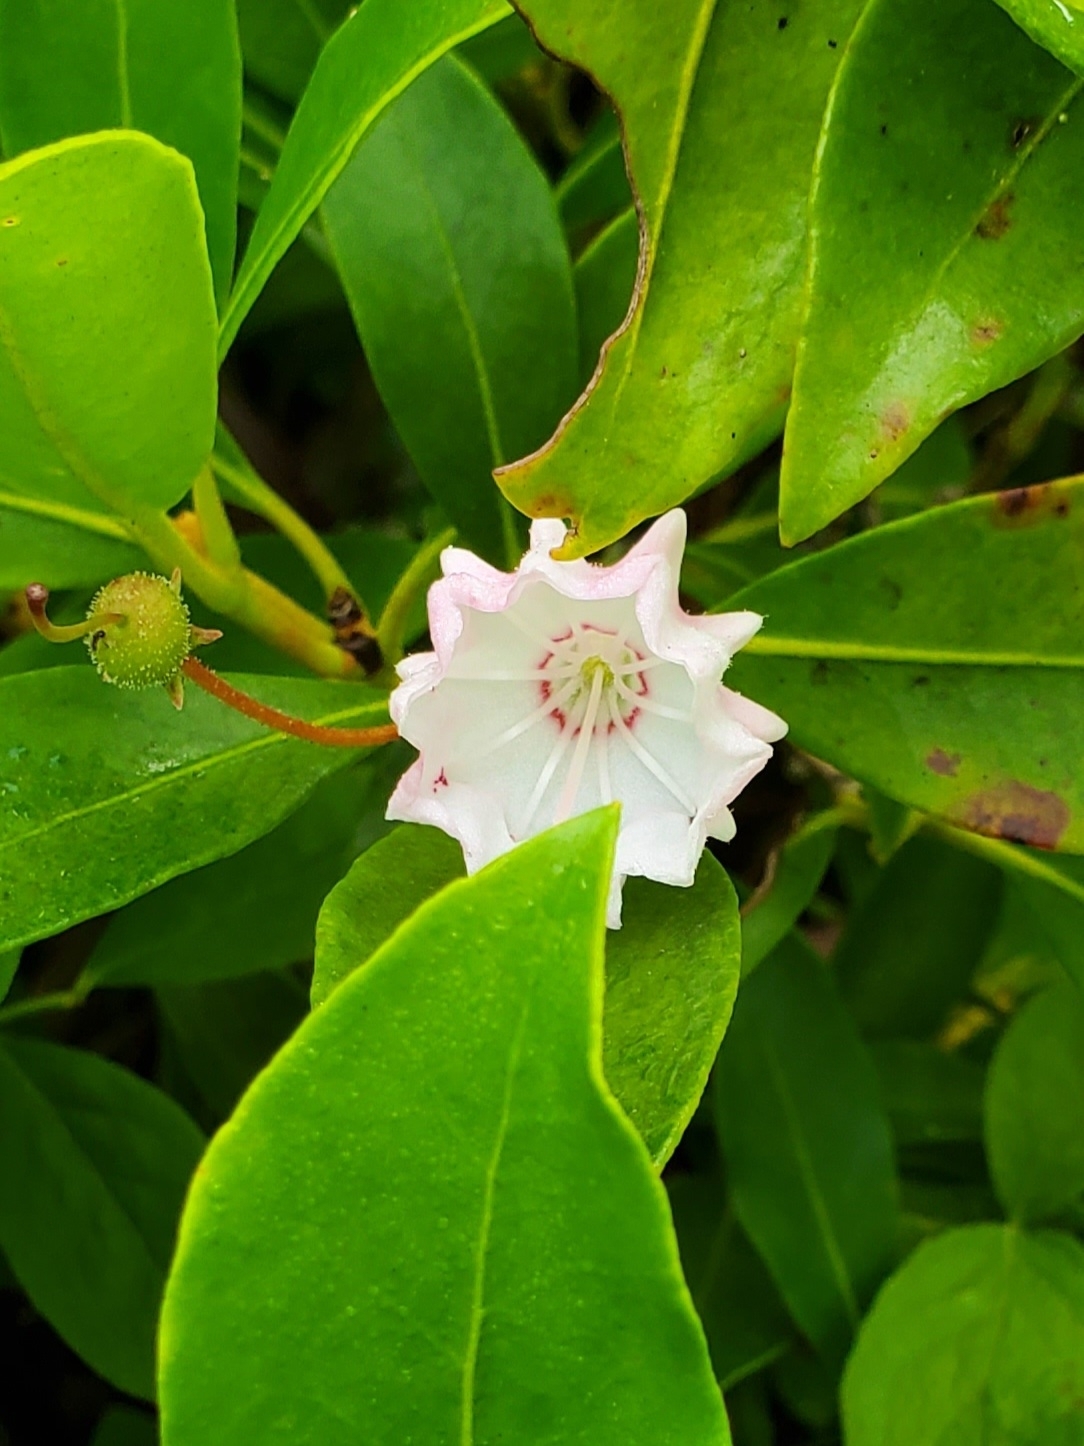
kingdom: Plantae
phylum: Tracheophyta
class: Magnoliopsida
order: Ericales
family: Ericaceae
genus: Kalmia
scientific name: Kalmia latifolia
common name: Mountain-laurel
